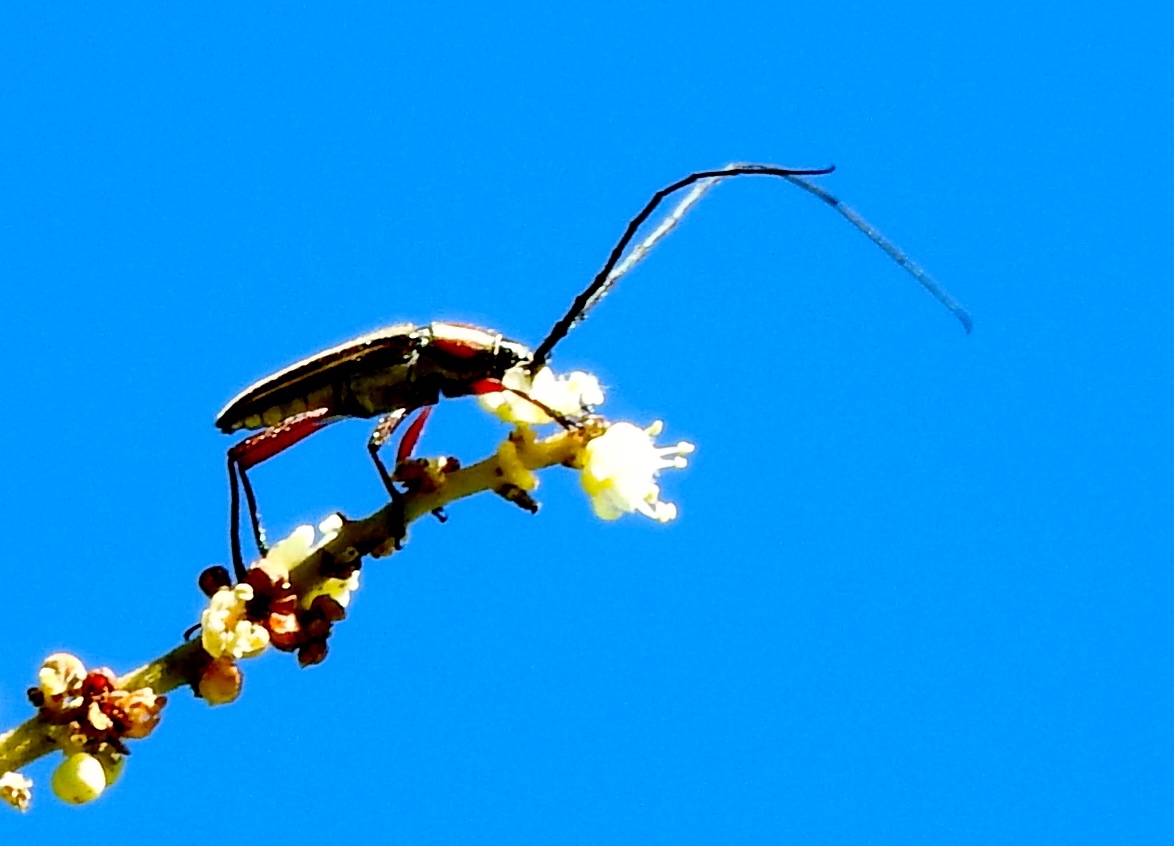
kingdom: Animalia
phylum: Arthropoda
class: Insecta
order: Coleoptera
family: Cerambycidae
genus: Sphaenothecus
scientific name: Sphaenothecus
